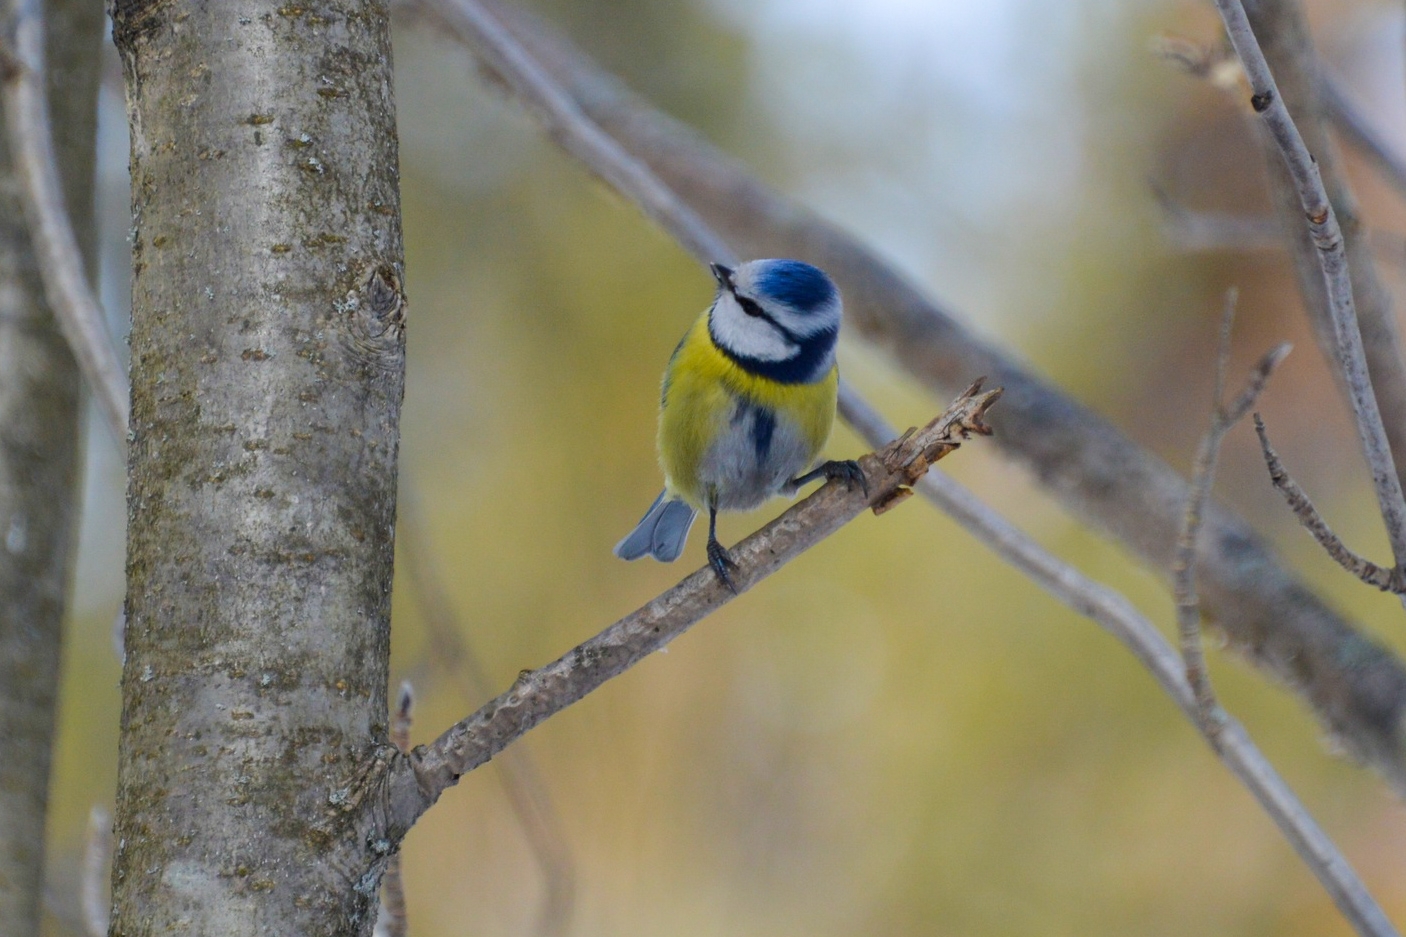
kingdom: Animalia
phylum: Chordata
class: Aves
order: Passeriformes
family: Paridae
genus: Cyanistes
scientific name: Cyanistes caeruleus
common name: Eurasian blue tit
